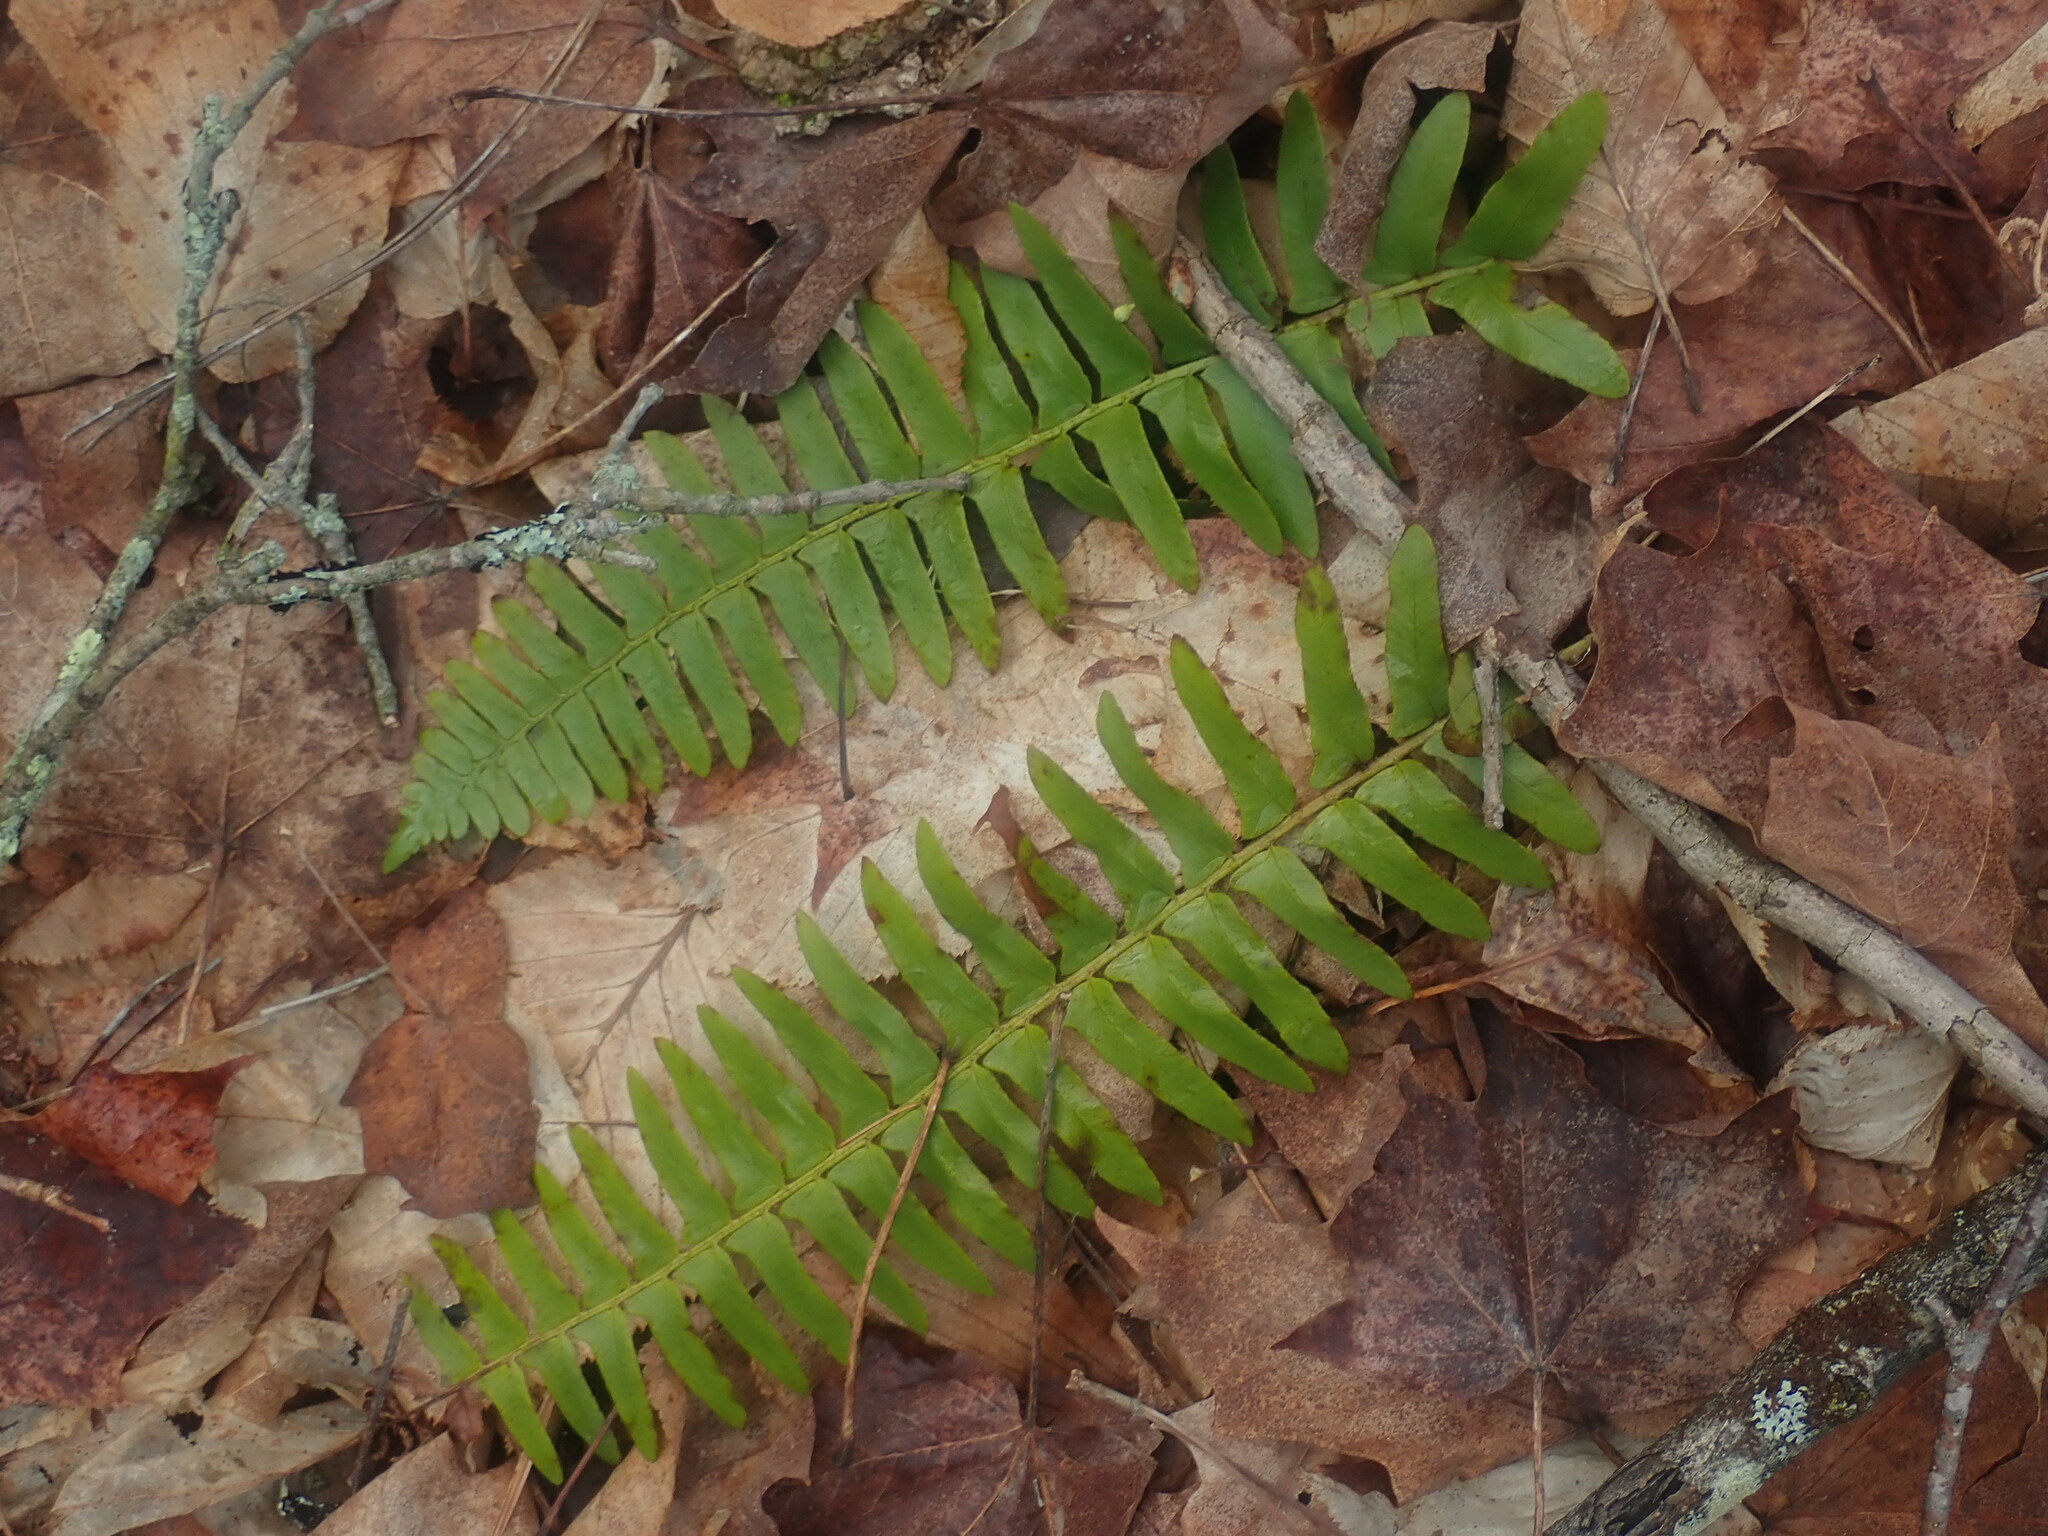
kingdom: Plantae
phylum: Tracheophyta
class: Polypodiopsida
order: Polypodiales
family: Dryopteridaceae
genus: Polystichum
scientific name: Polystichum acrostichoides
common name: Christmas fern
